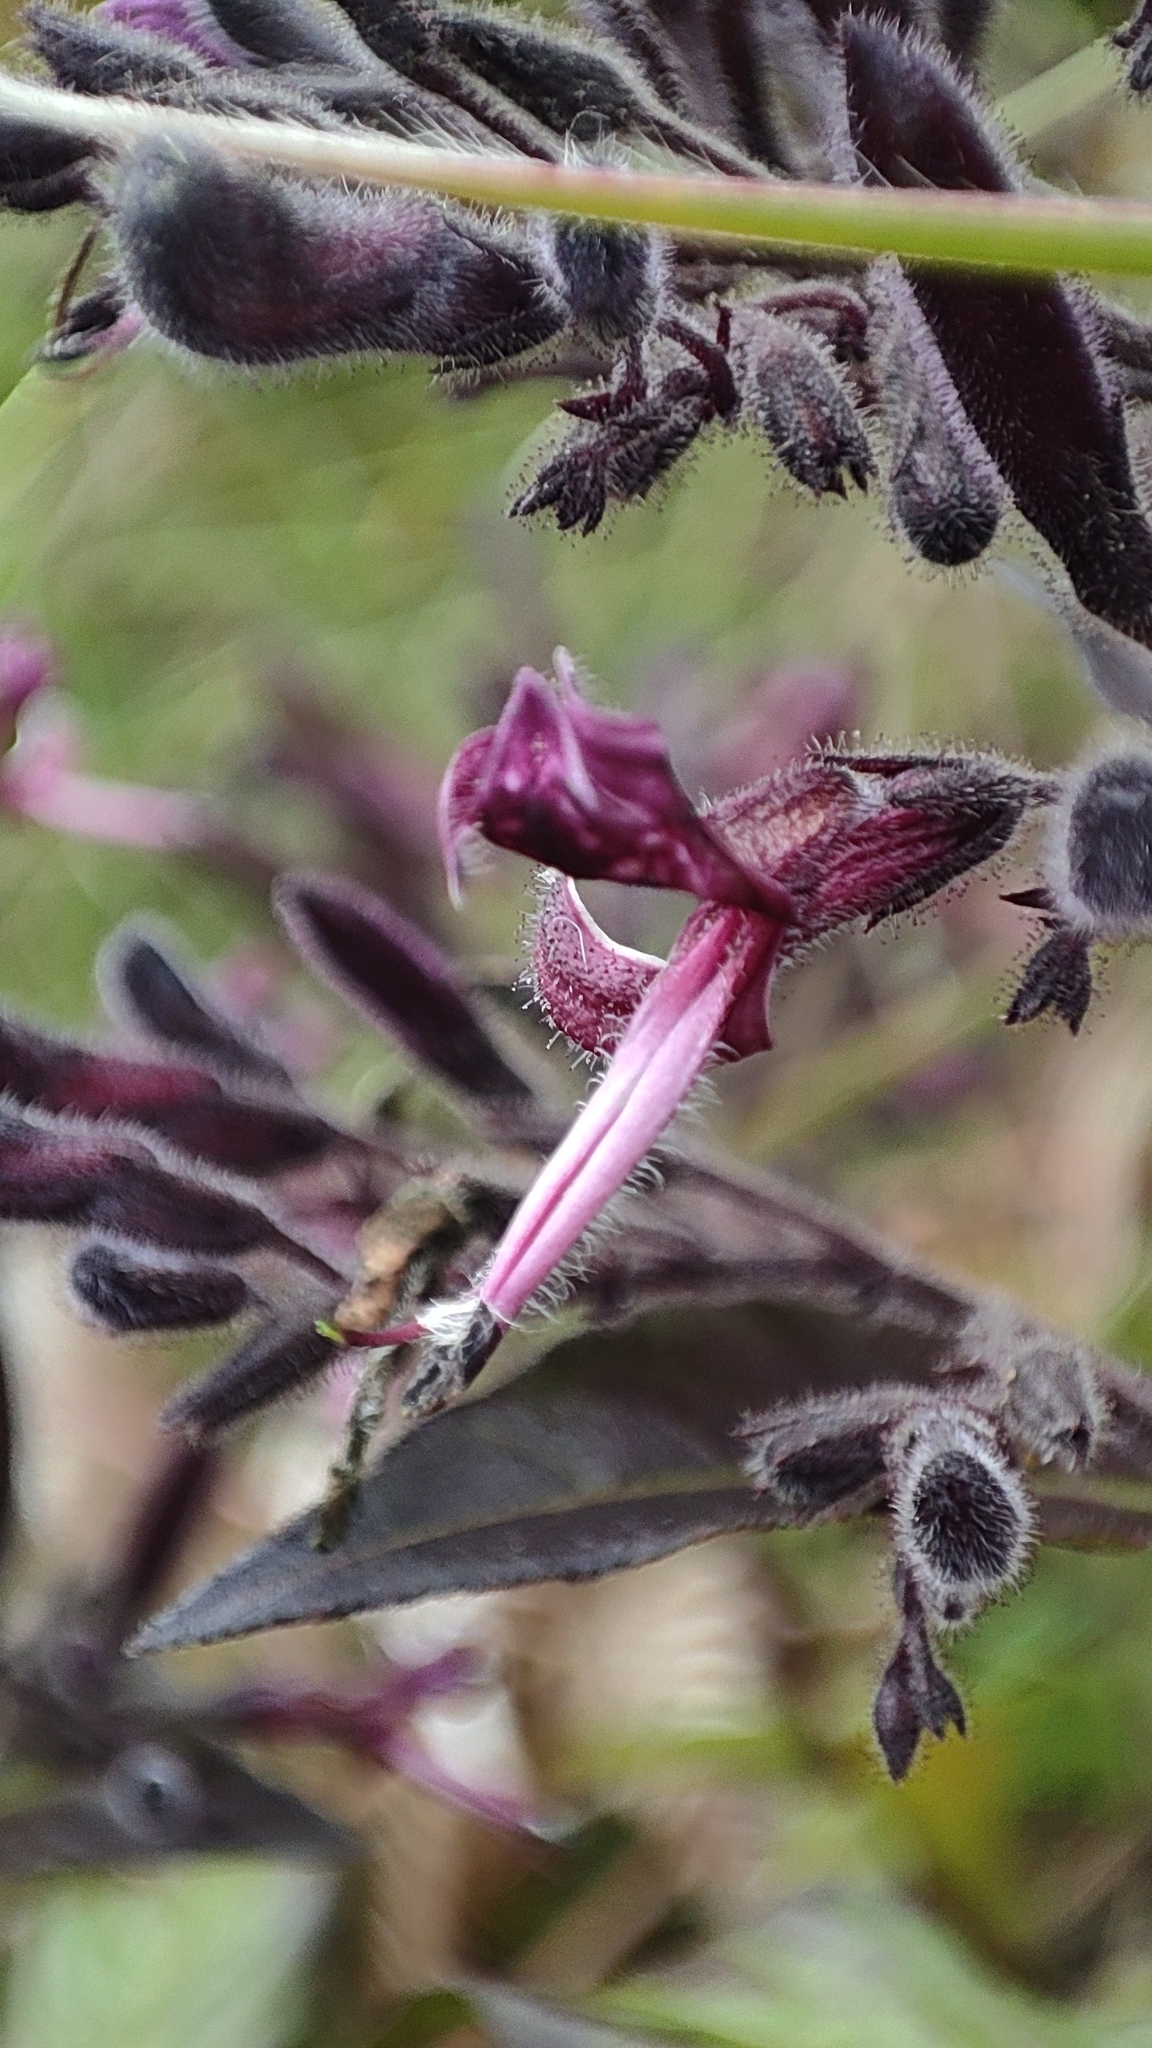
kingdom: Plantae
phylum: Tracheophyta
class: Magnoliopsida
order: Lamiales
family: Acanthaceae
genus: Andrographis
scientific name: Andrographis neesiana
